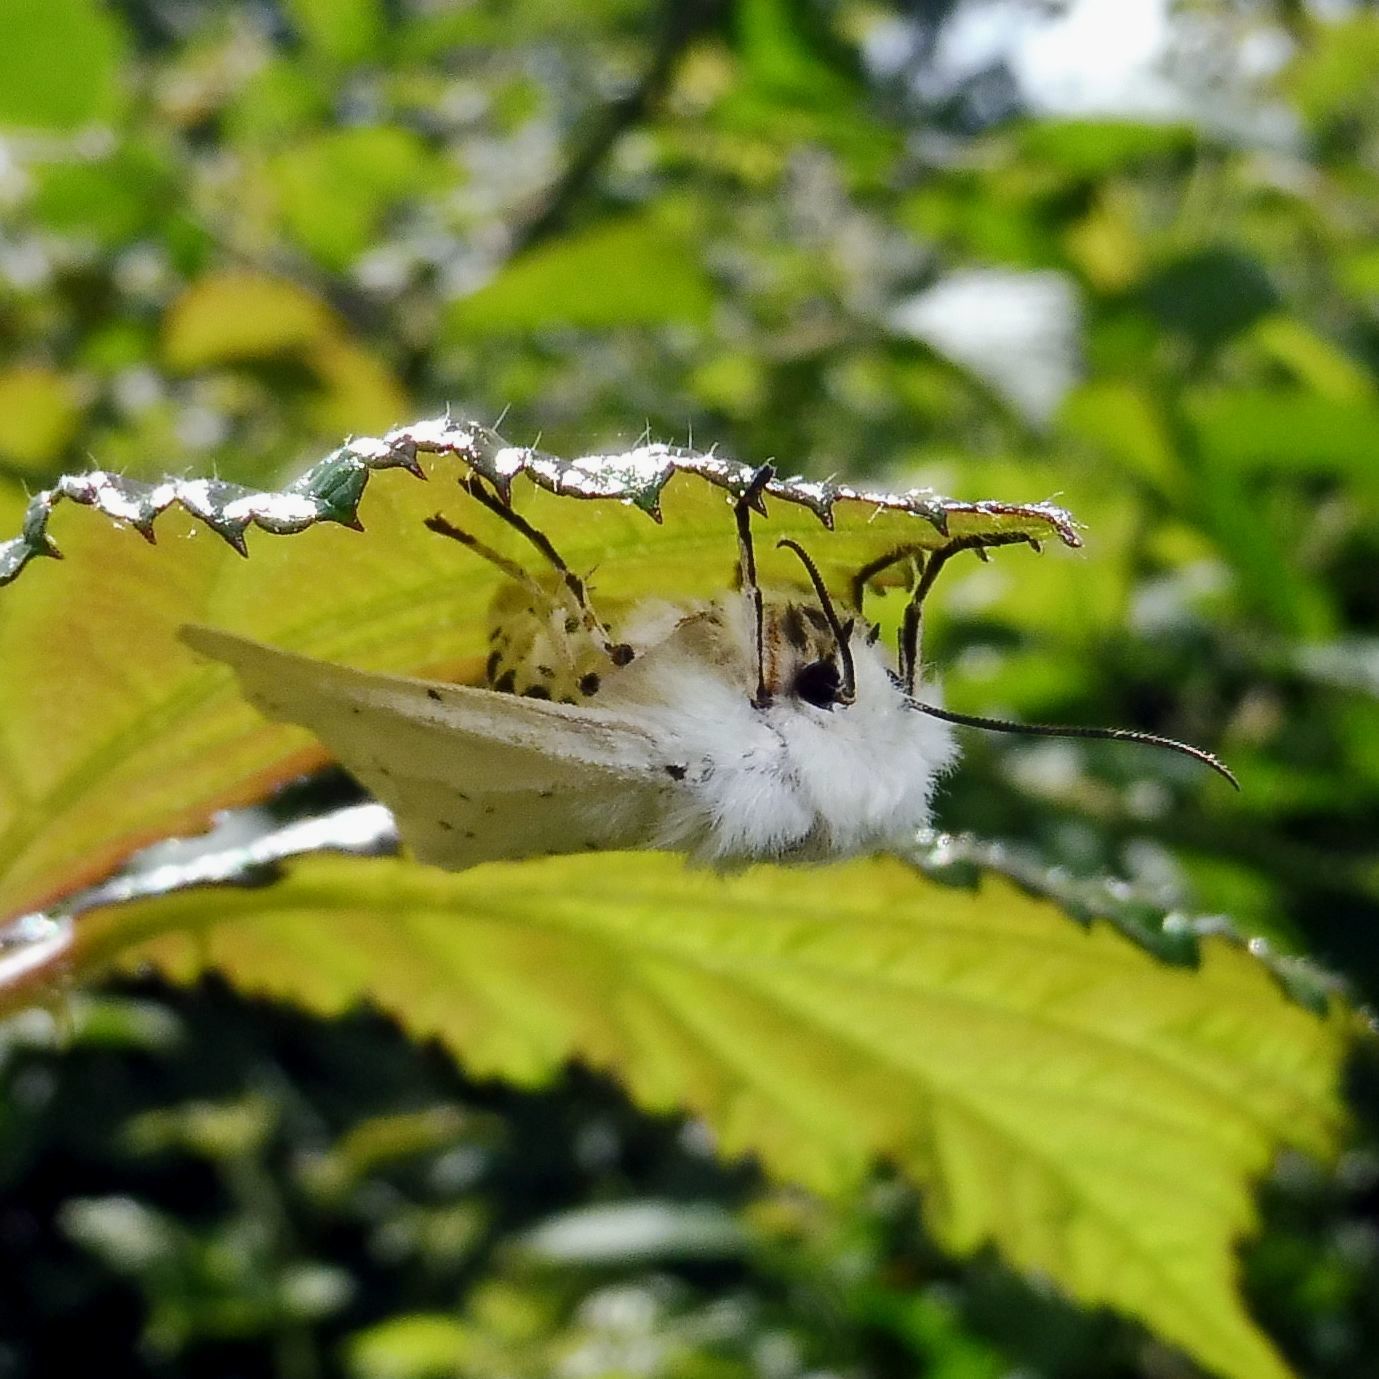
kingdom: Animalia
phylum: Arthropoda
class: Insecta
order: Lepidoptera
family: Erebidae
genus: Spilosoma
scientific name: Spilosoma lubricipeda
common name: White ermine
